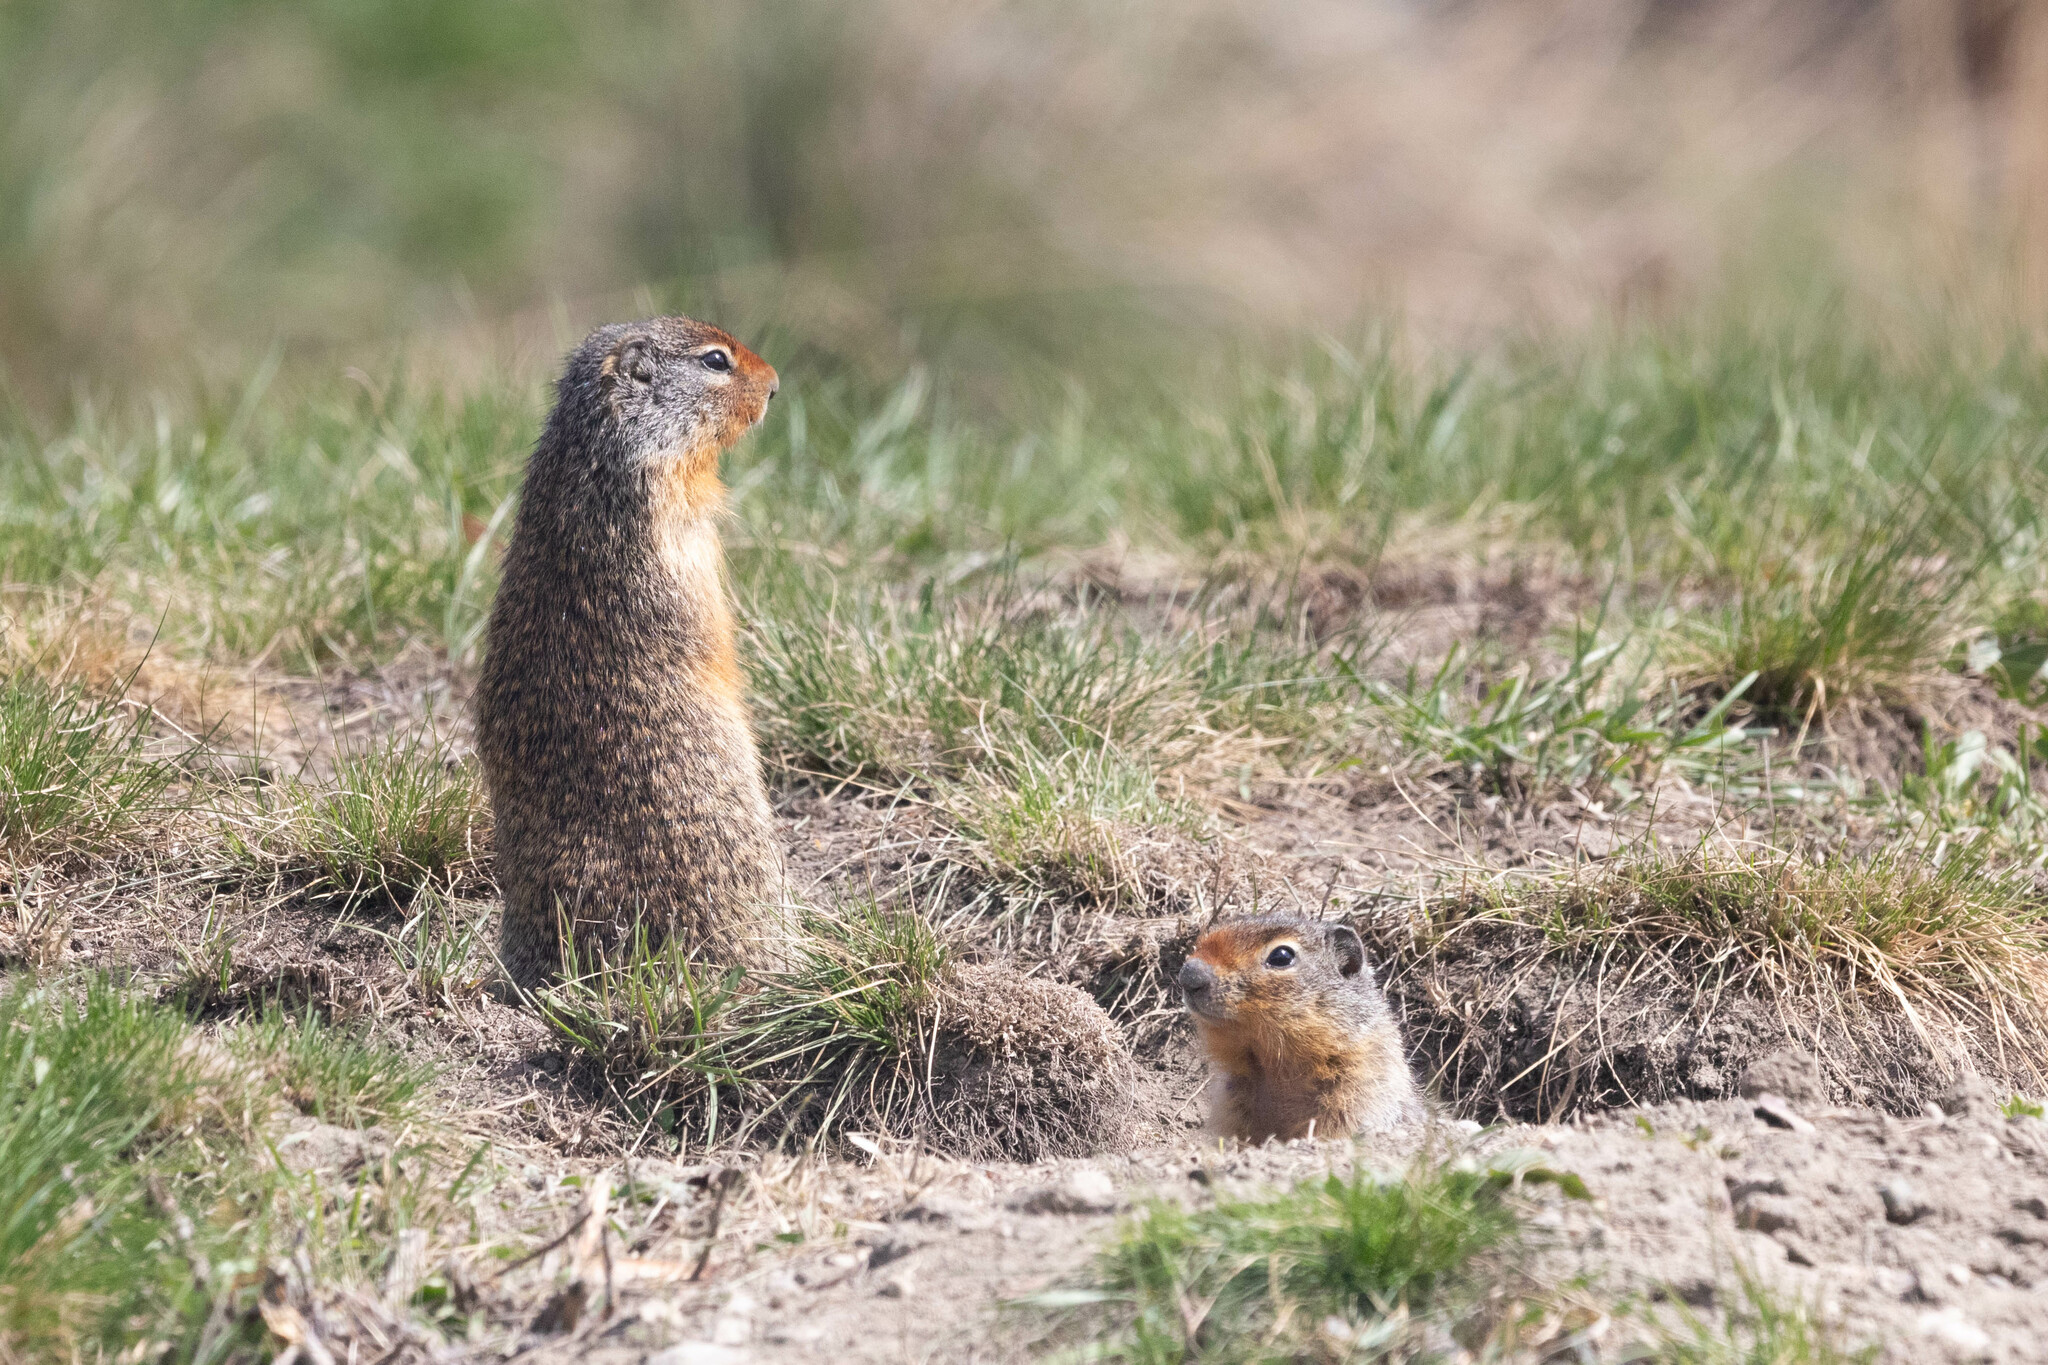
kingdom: Animalia
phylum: Chordata
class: Mammalia
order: Rodentia
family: Sciuridae
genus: Urocitellus
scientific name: Urocitellus columbianus
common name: Columbian ground squirrel
